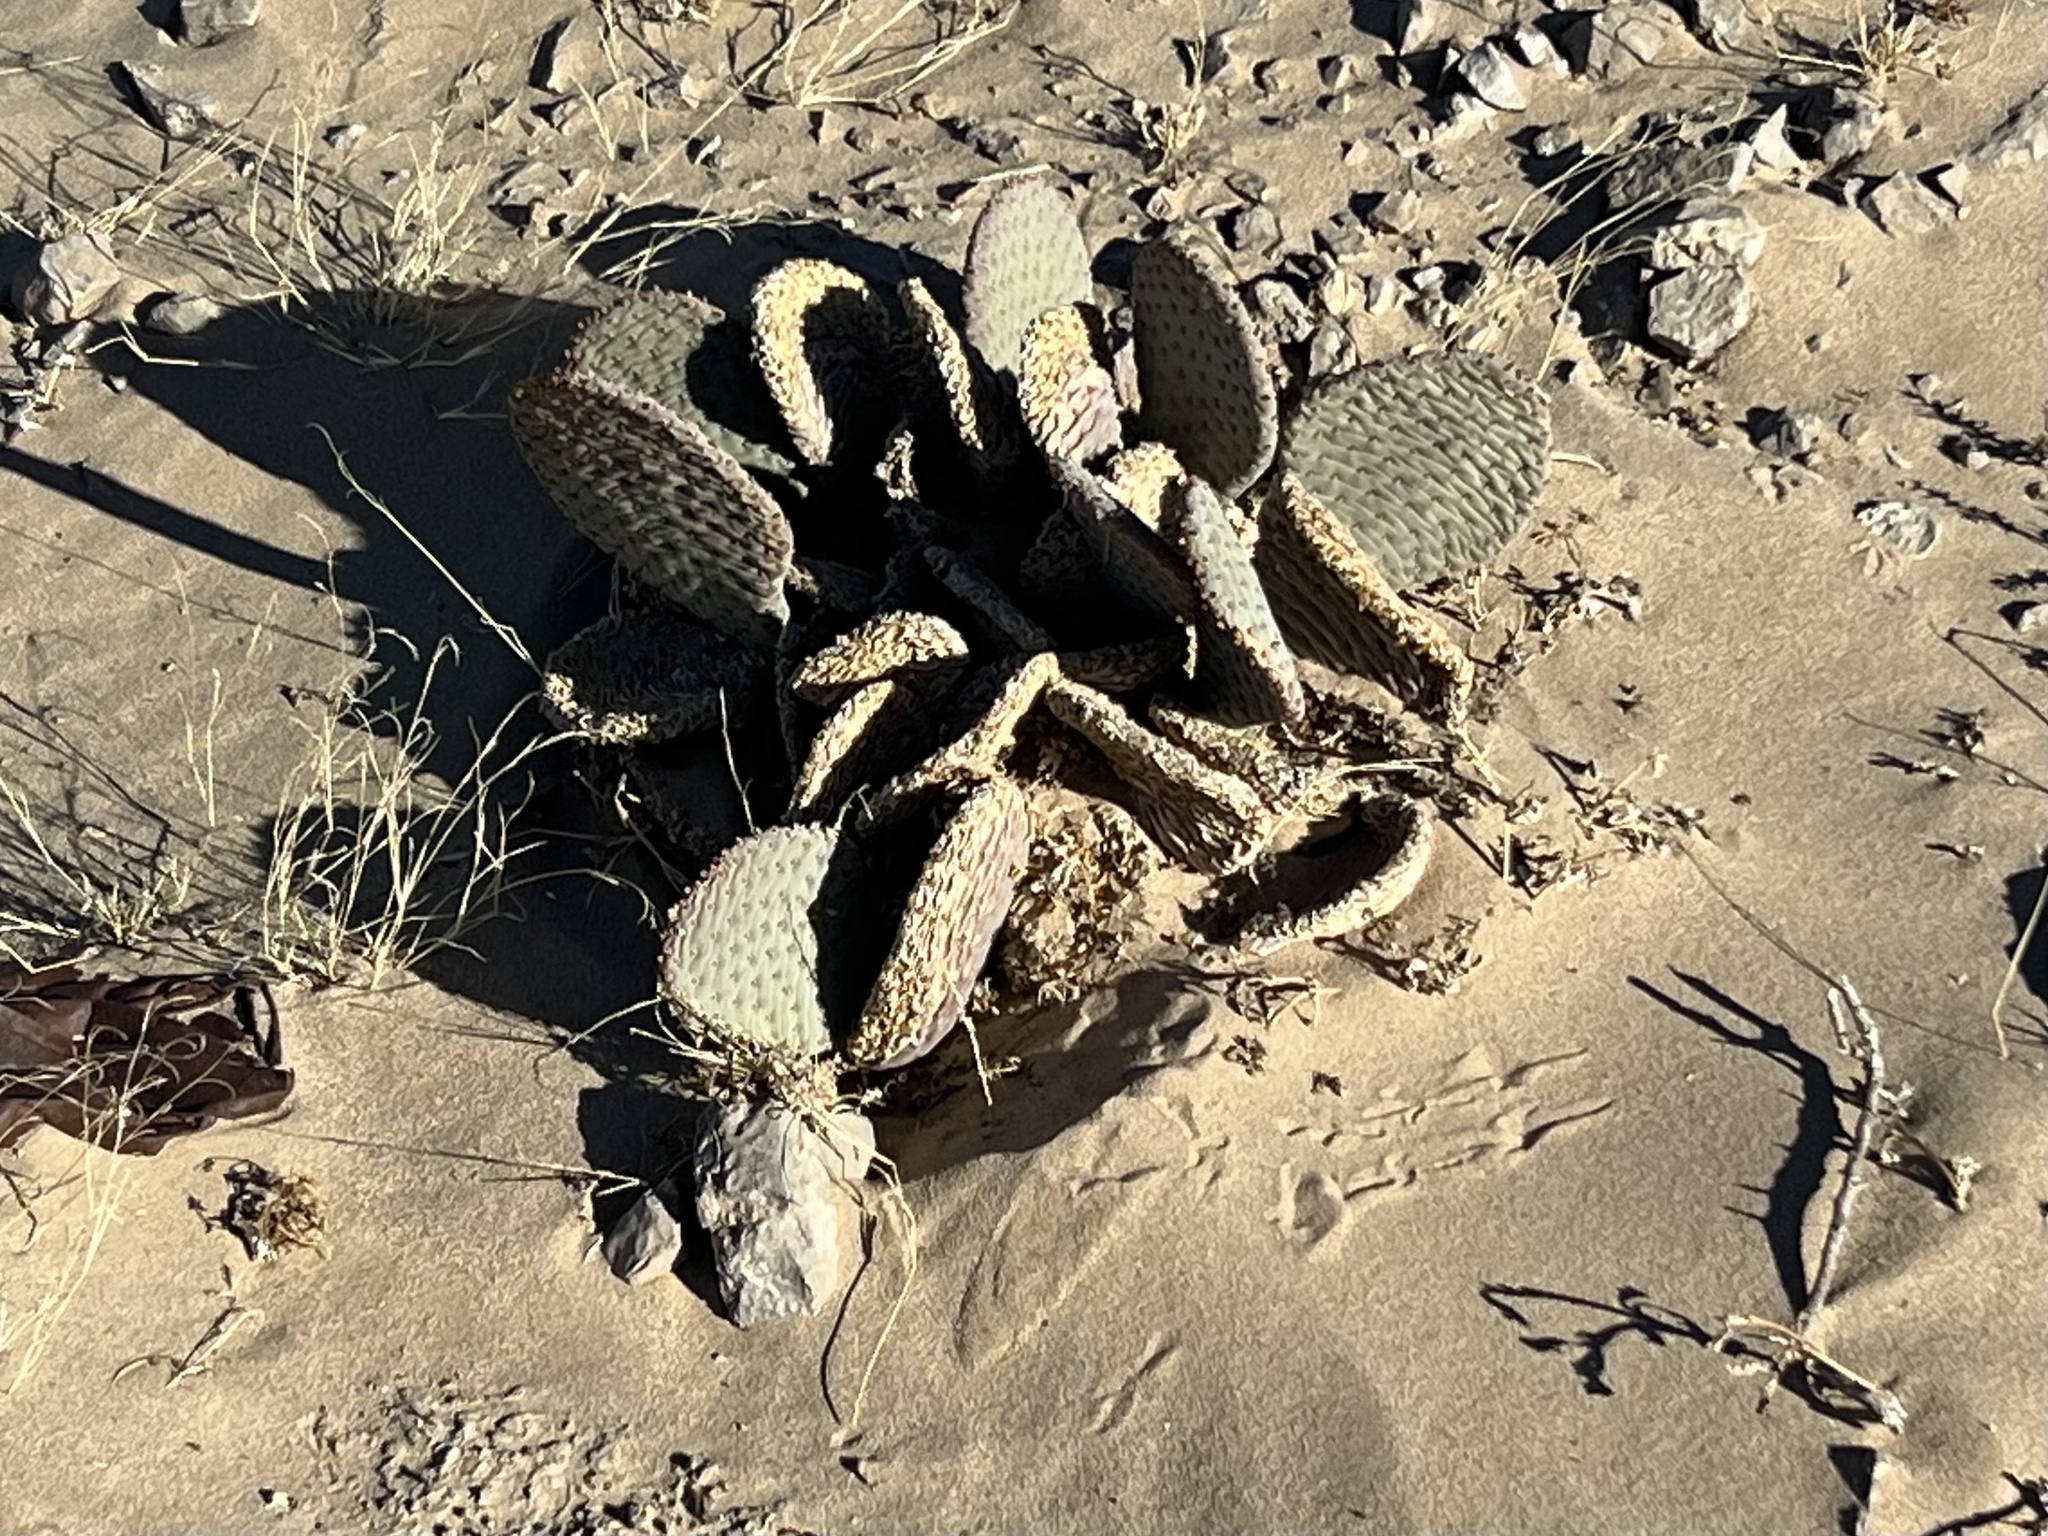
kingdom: Plantae
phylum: Tracheophyta
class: Magnoliopsida
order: Caryophyllales
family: Cactaceae
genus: Opuntia
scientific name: Opuntia basilaris
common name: Beavertail prickly-pear
